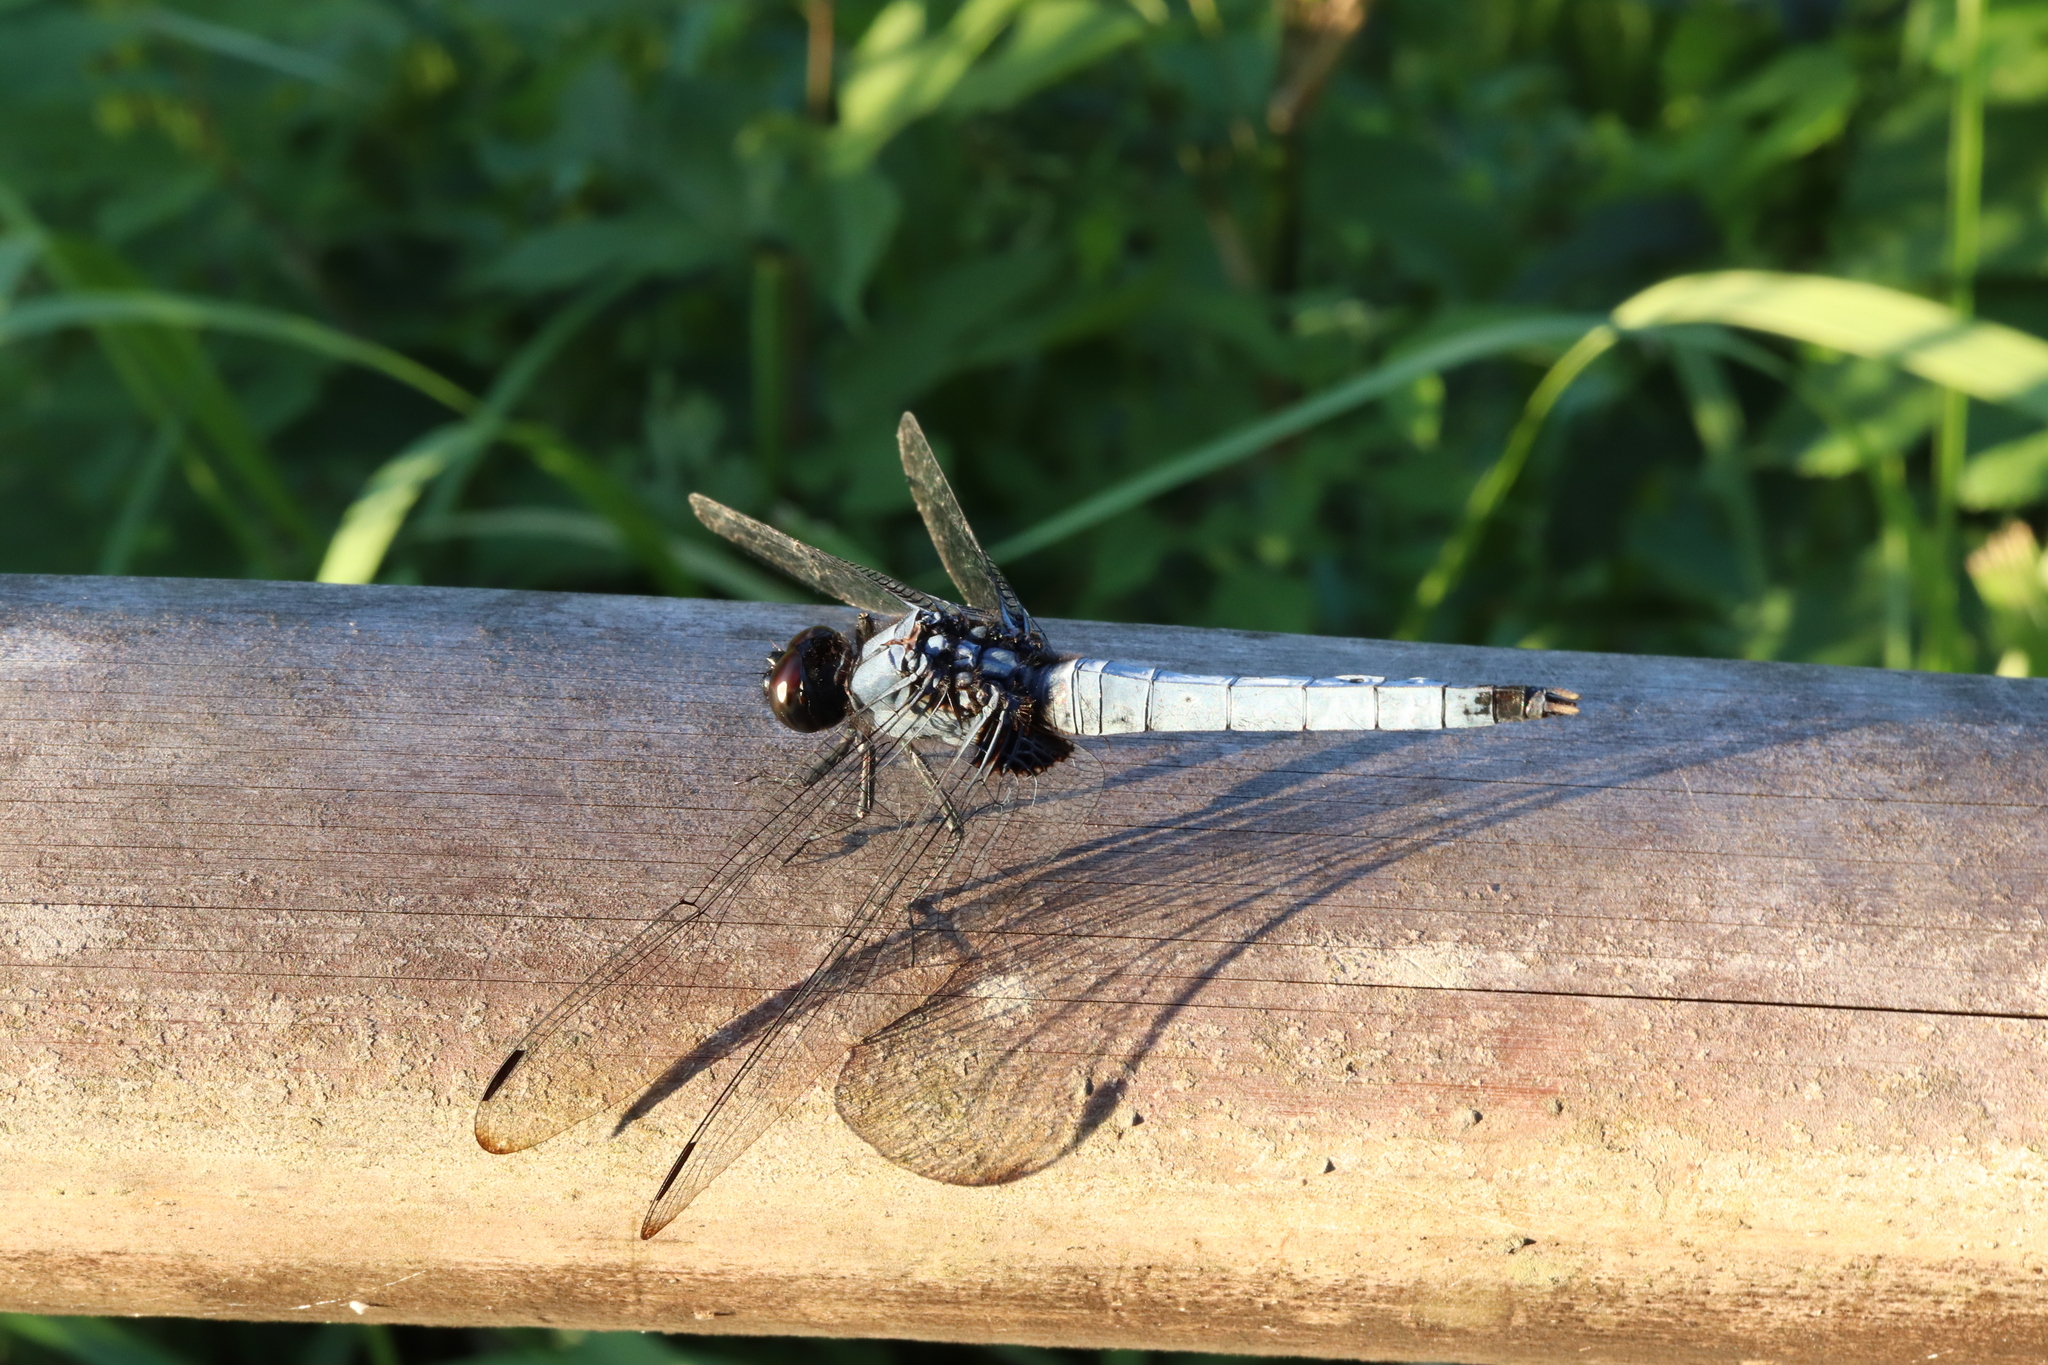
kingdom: Animalia
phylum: Arthropoda
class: Insecta
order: Odonata
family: Libellulidae
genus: Orthetrum
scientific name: Orthetrum melania
